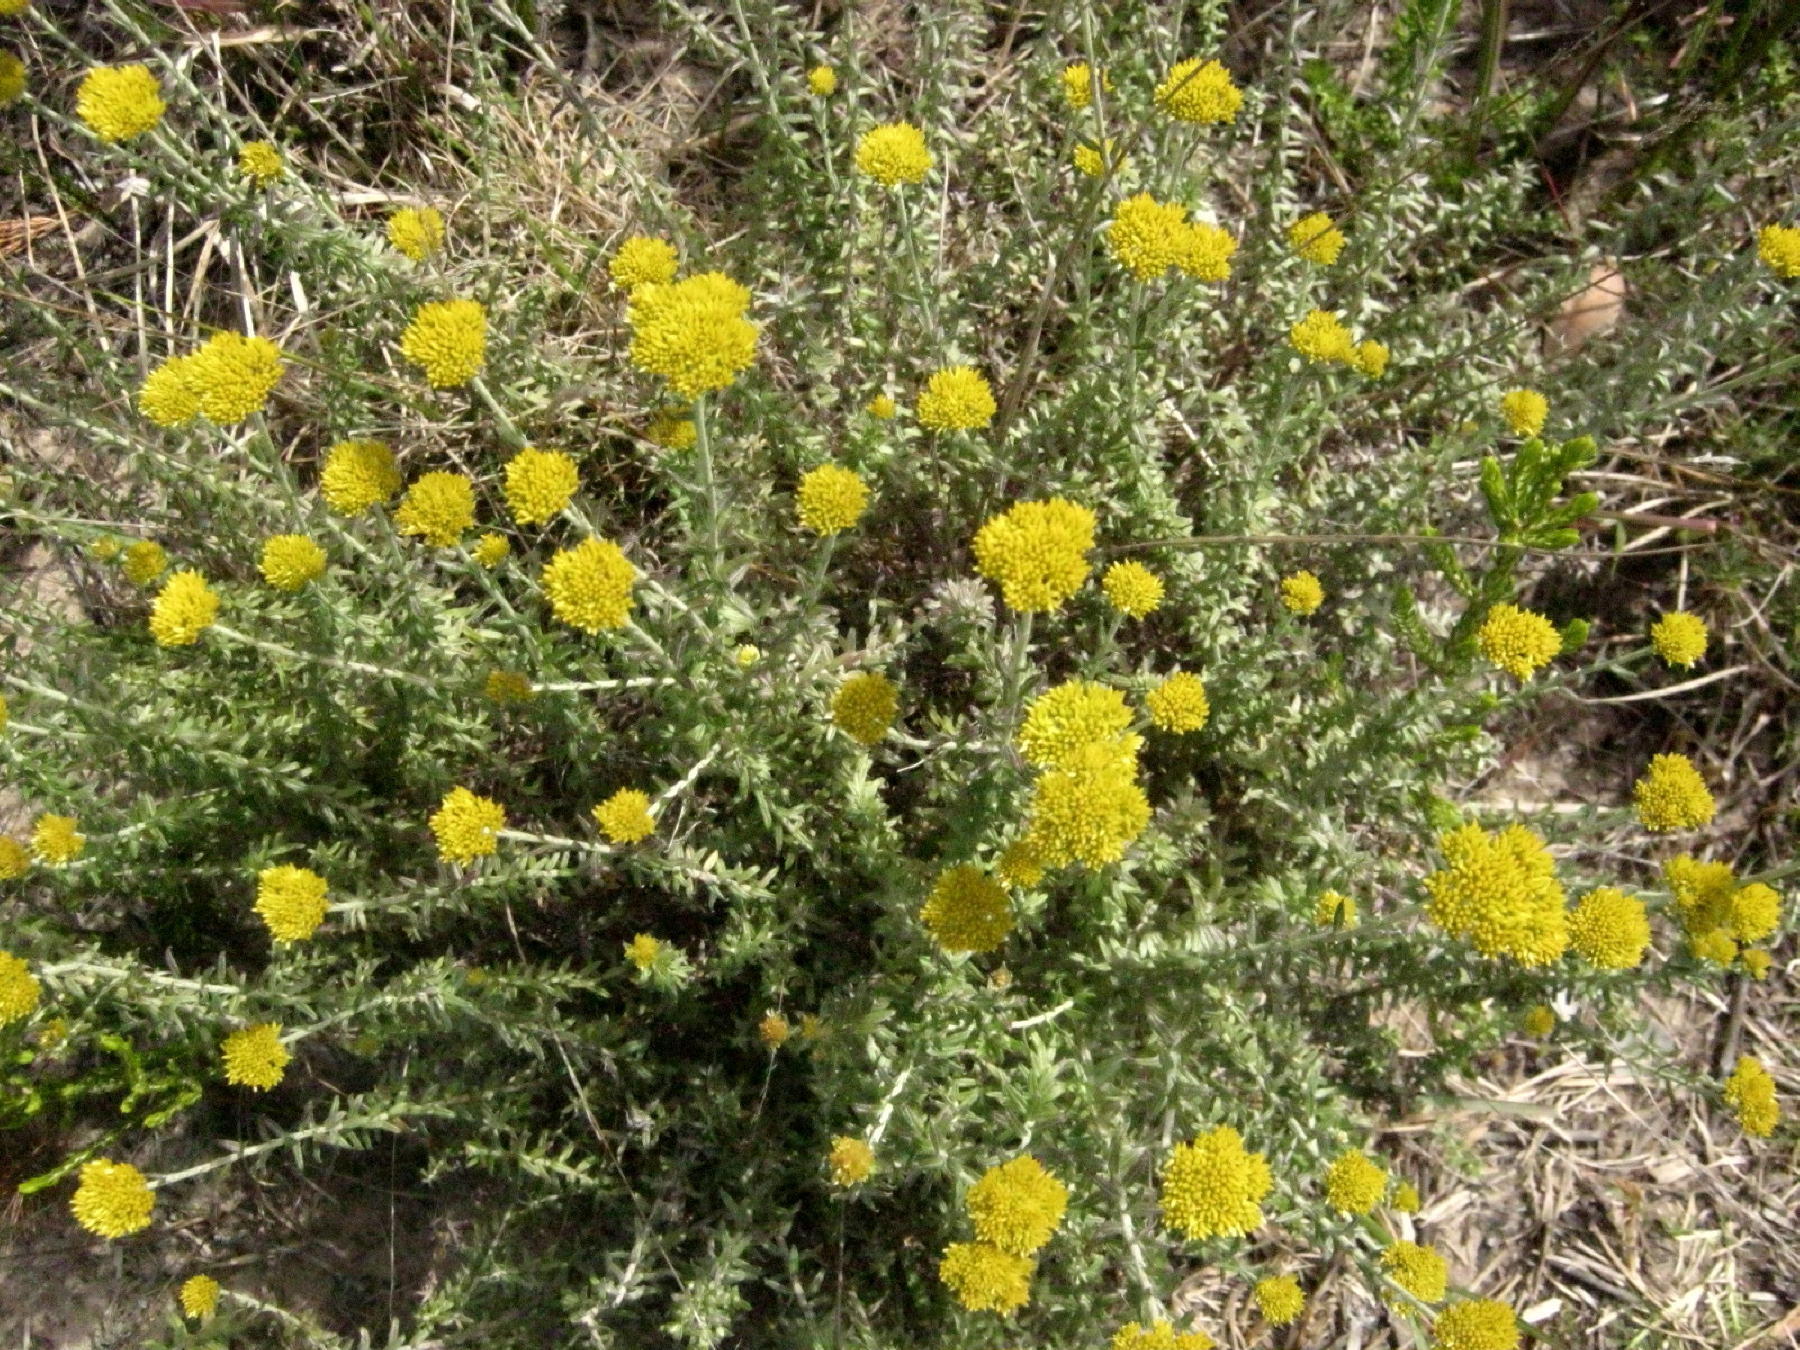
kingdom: Plantae
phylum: Tracheophyta
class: Magnoliopsida
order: Asterales
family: Asteraceae
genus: Helichrysum
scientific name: Helichrysum cymosum
